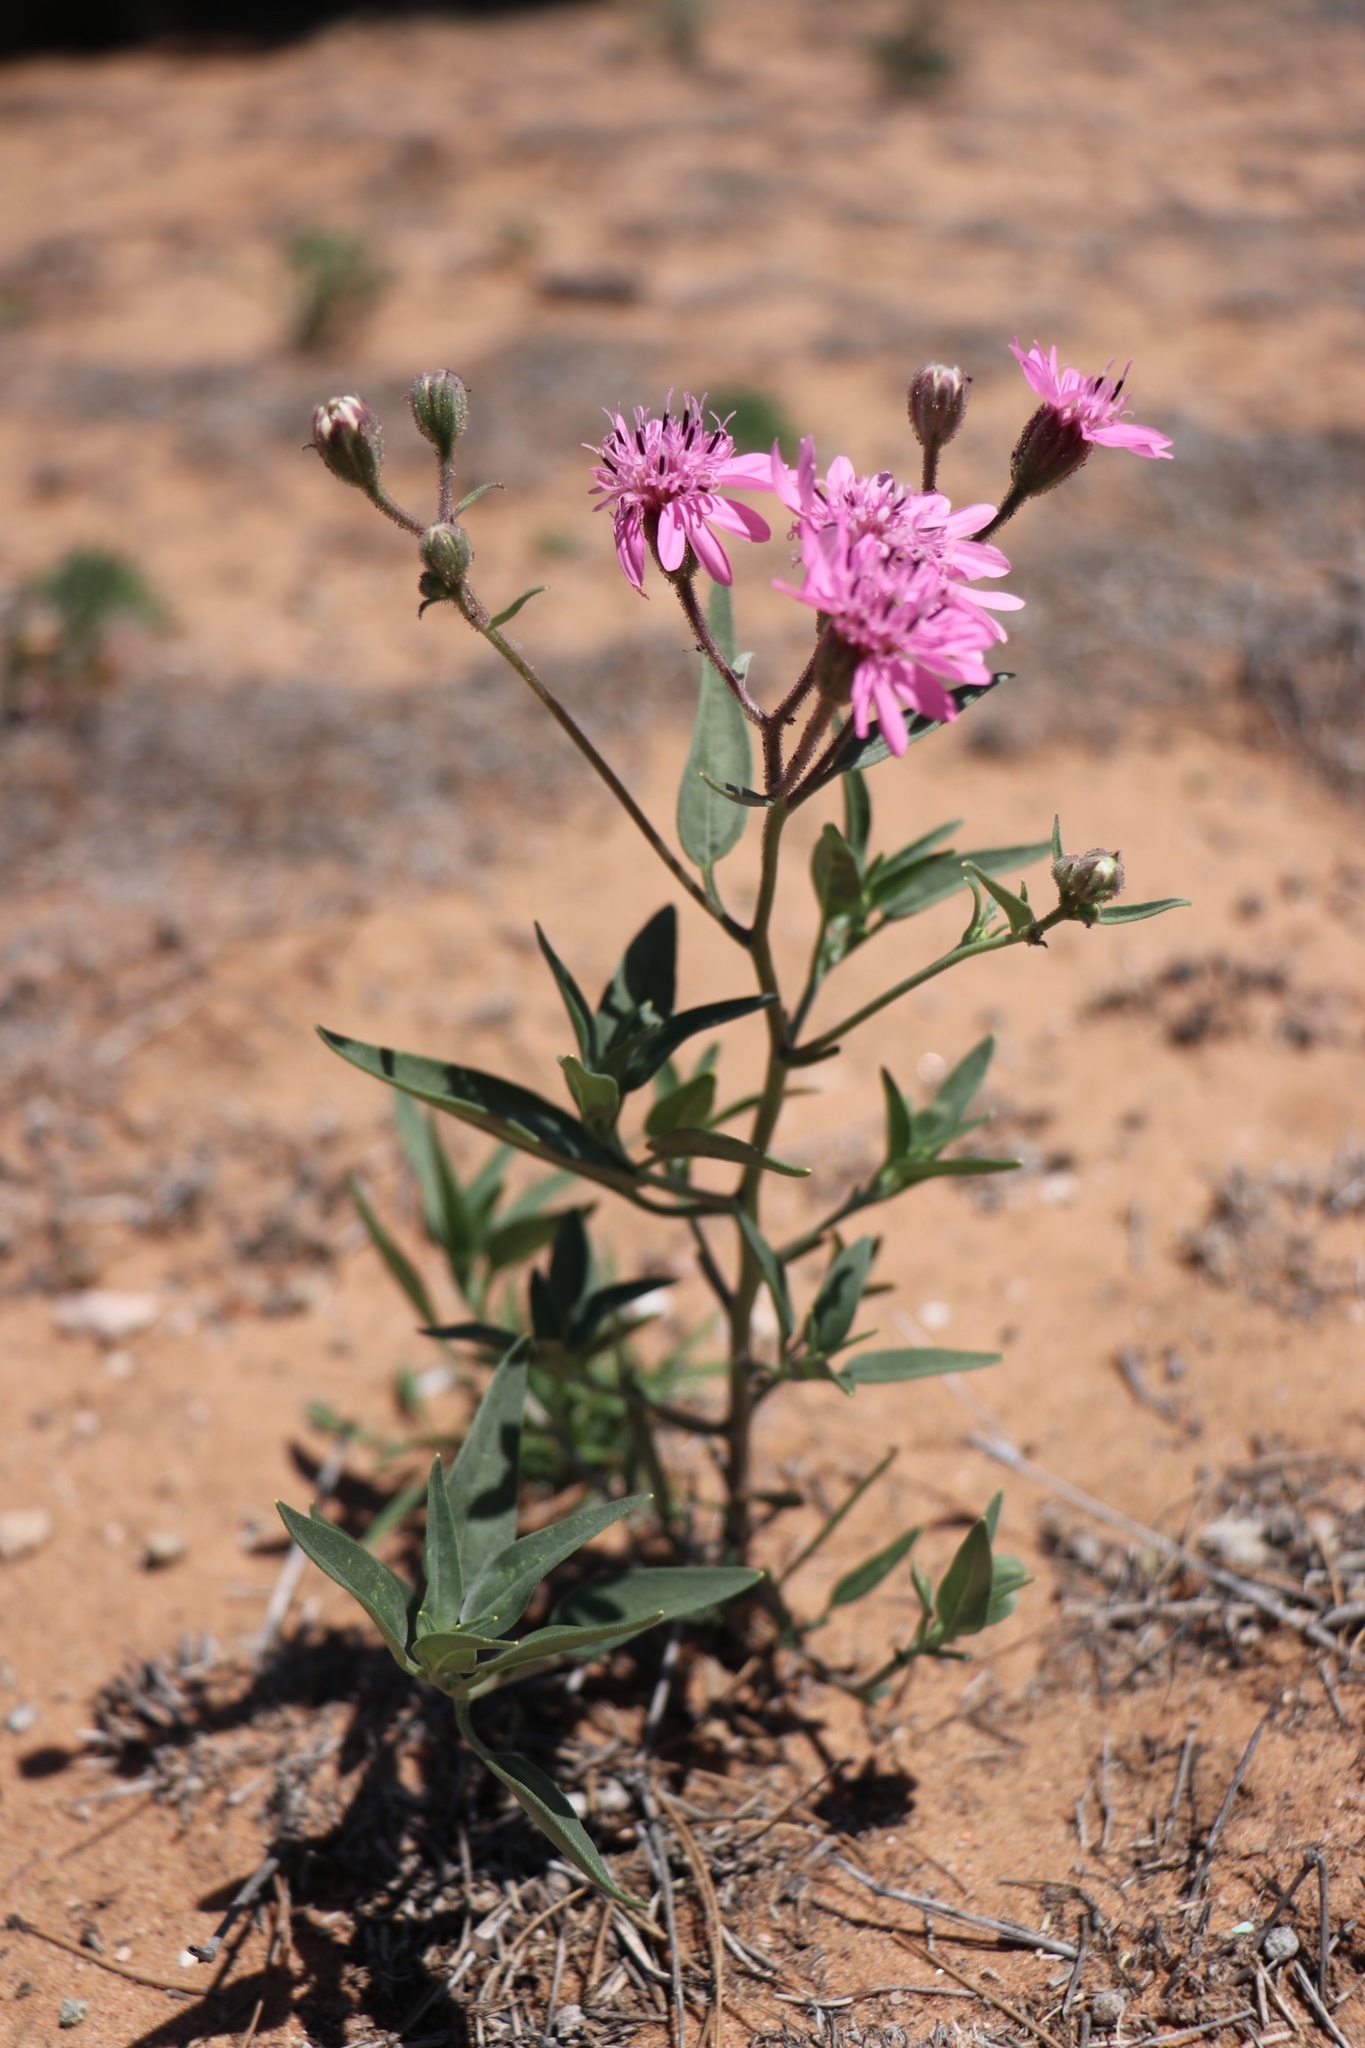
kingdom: Plantae
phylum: Tracheophyta
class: Magnoliopsida
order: Asterales
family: Asteraceae
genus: Palafoxia
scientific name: Palafoxia sphacelata
